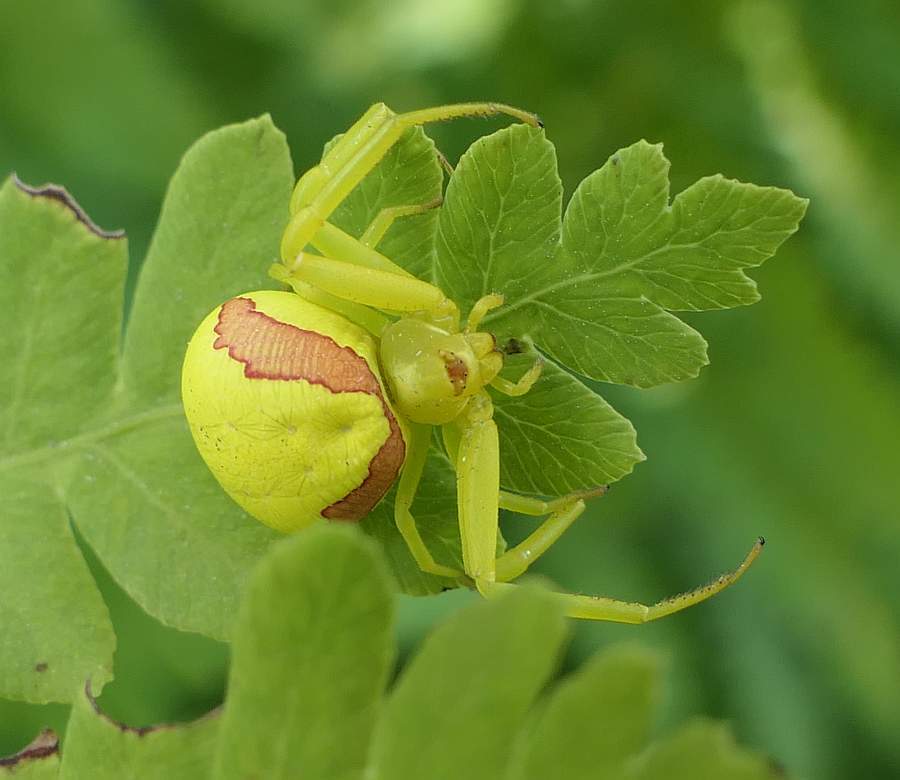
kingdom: Animalia
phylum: Arthropoda
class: Arachnida
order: Araneae
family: Thomisidae
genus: Misumena
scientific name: Misumena vatia
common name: Goldenrod crab spider
